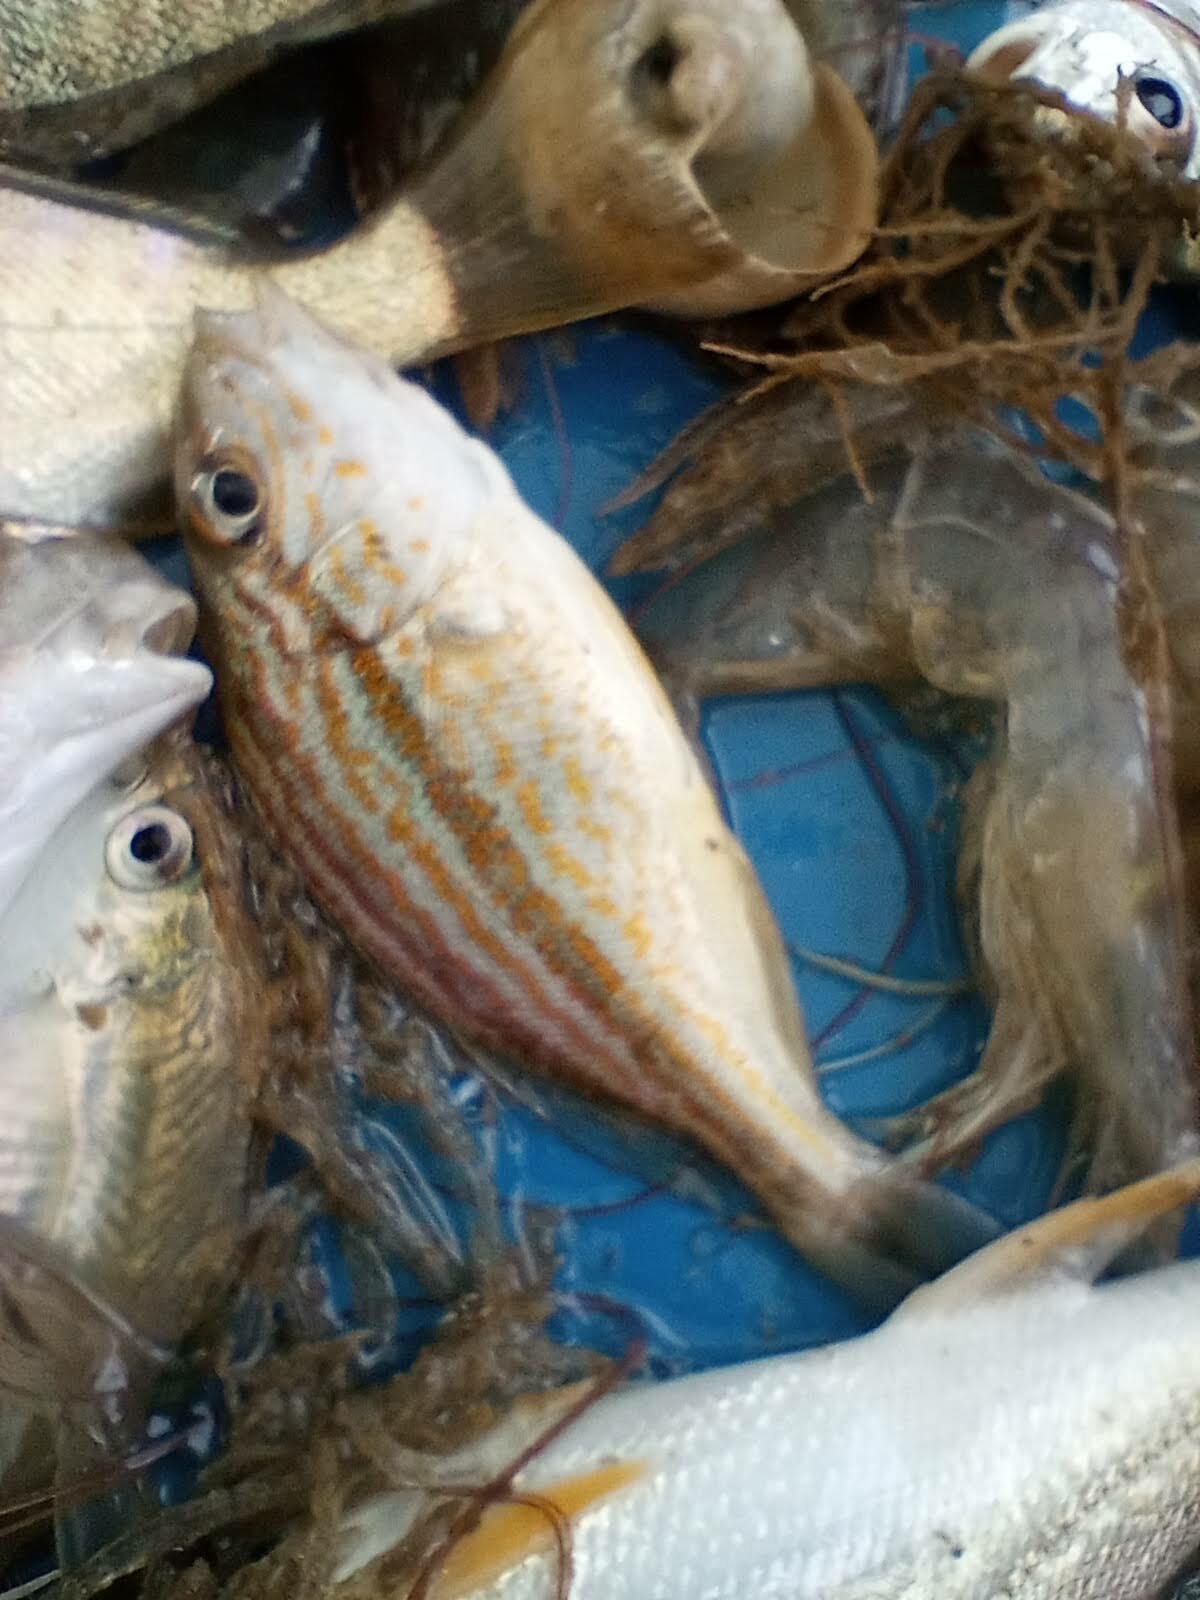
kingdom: Animalia
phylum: Chordata
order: Perciformes
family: Haemulidae
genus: Orthopristis
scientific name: Orthopristis chrysoptera
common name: Pigfish
